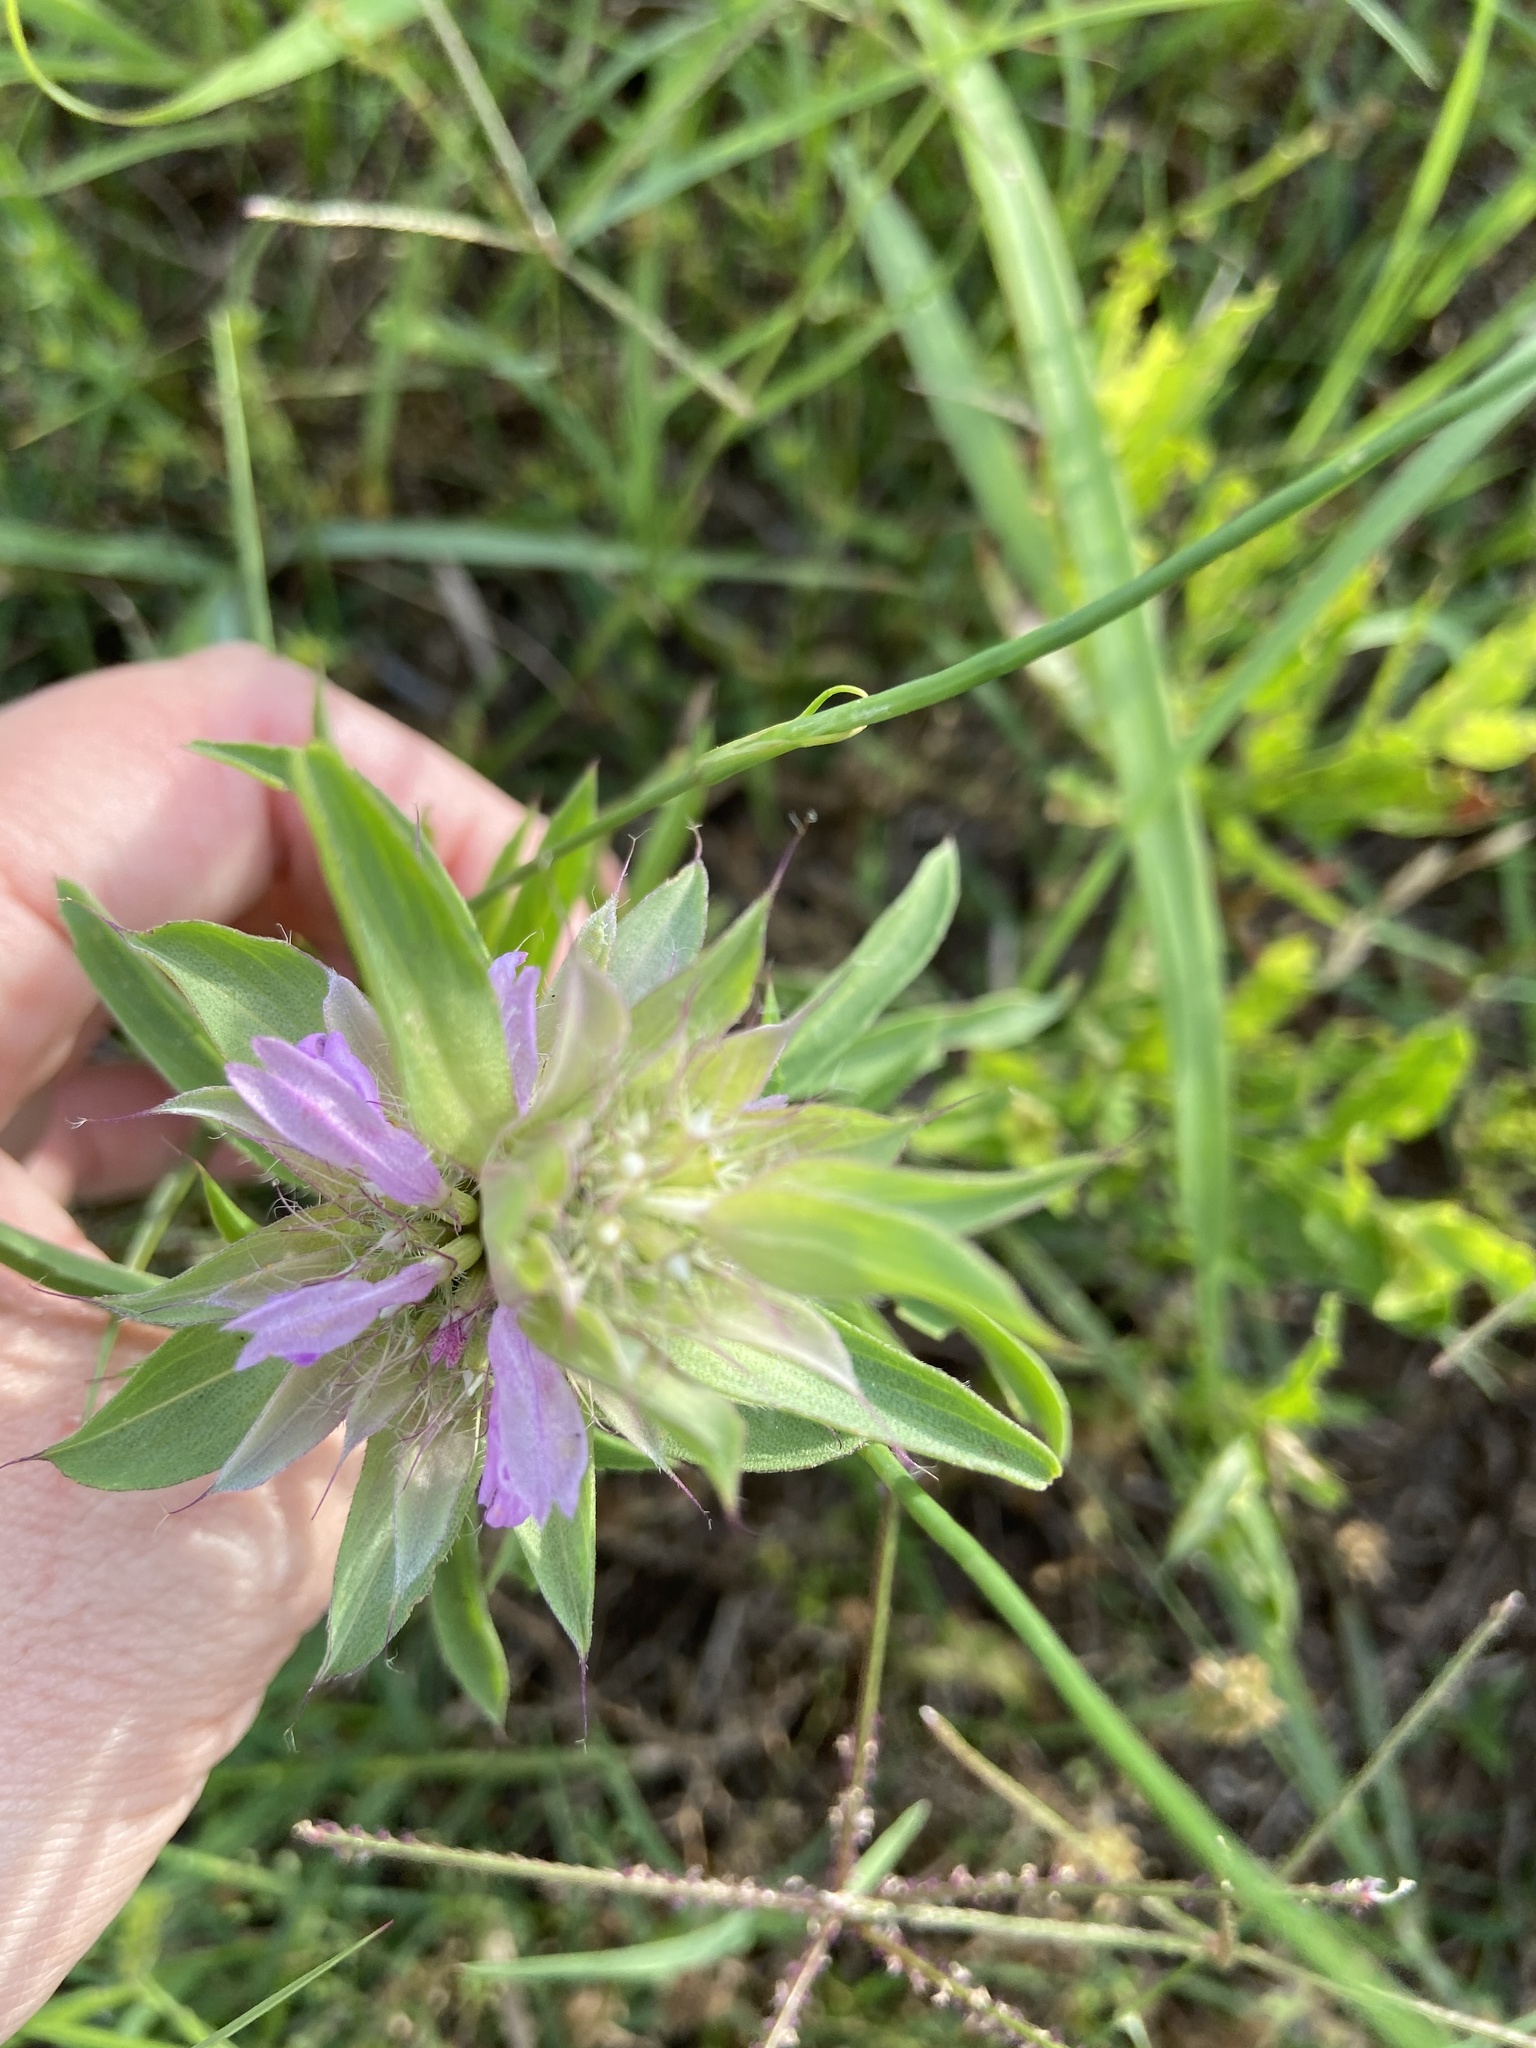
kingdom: Plantae
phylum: Tracheophyta
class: Magnoliopsida
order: Lamiales
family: Lamiaceae
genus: Monarda
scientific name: Monarda citriodora
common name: Lemon beebalm
